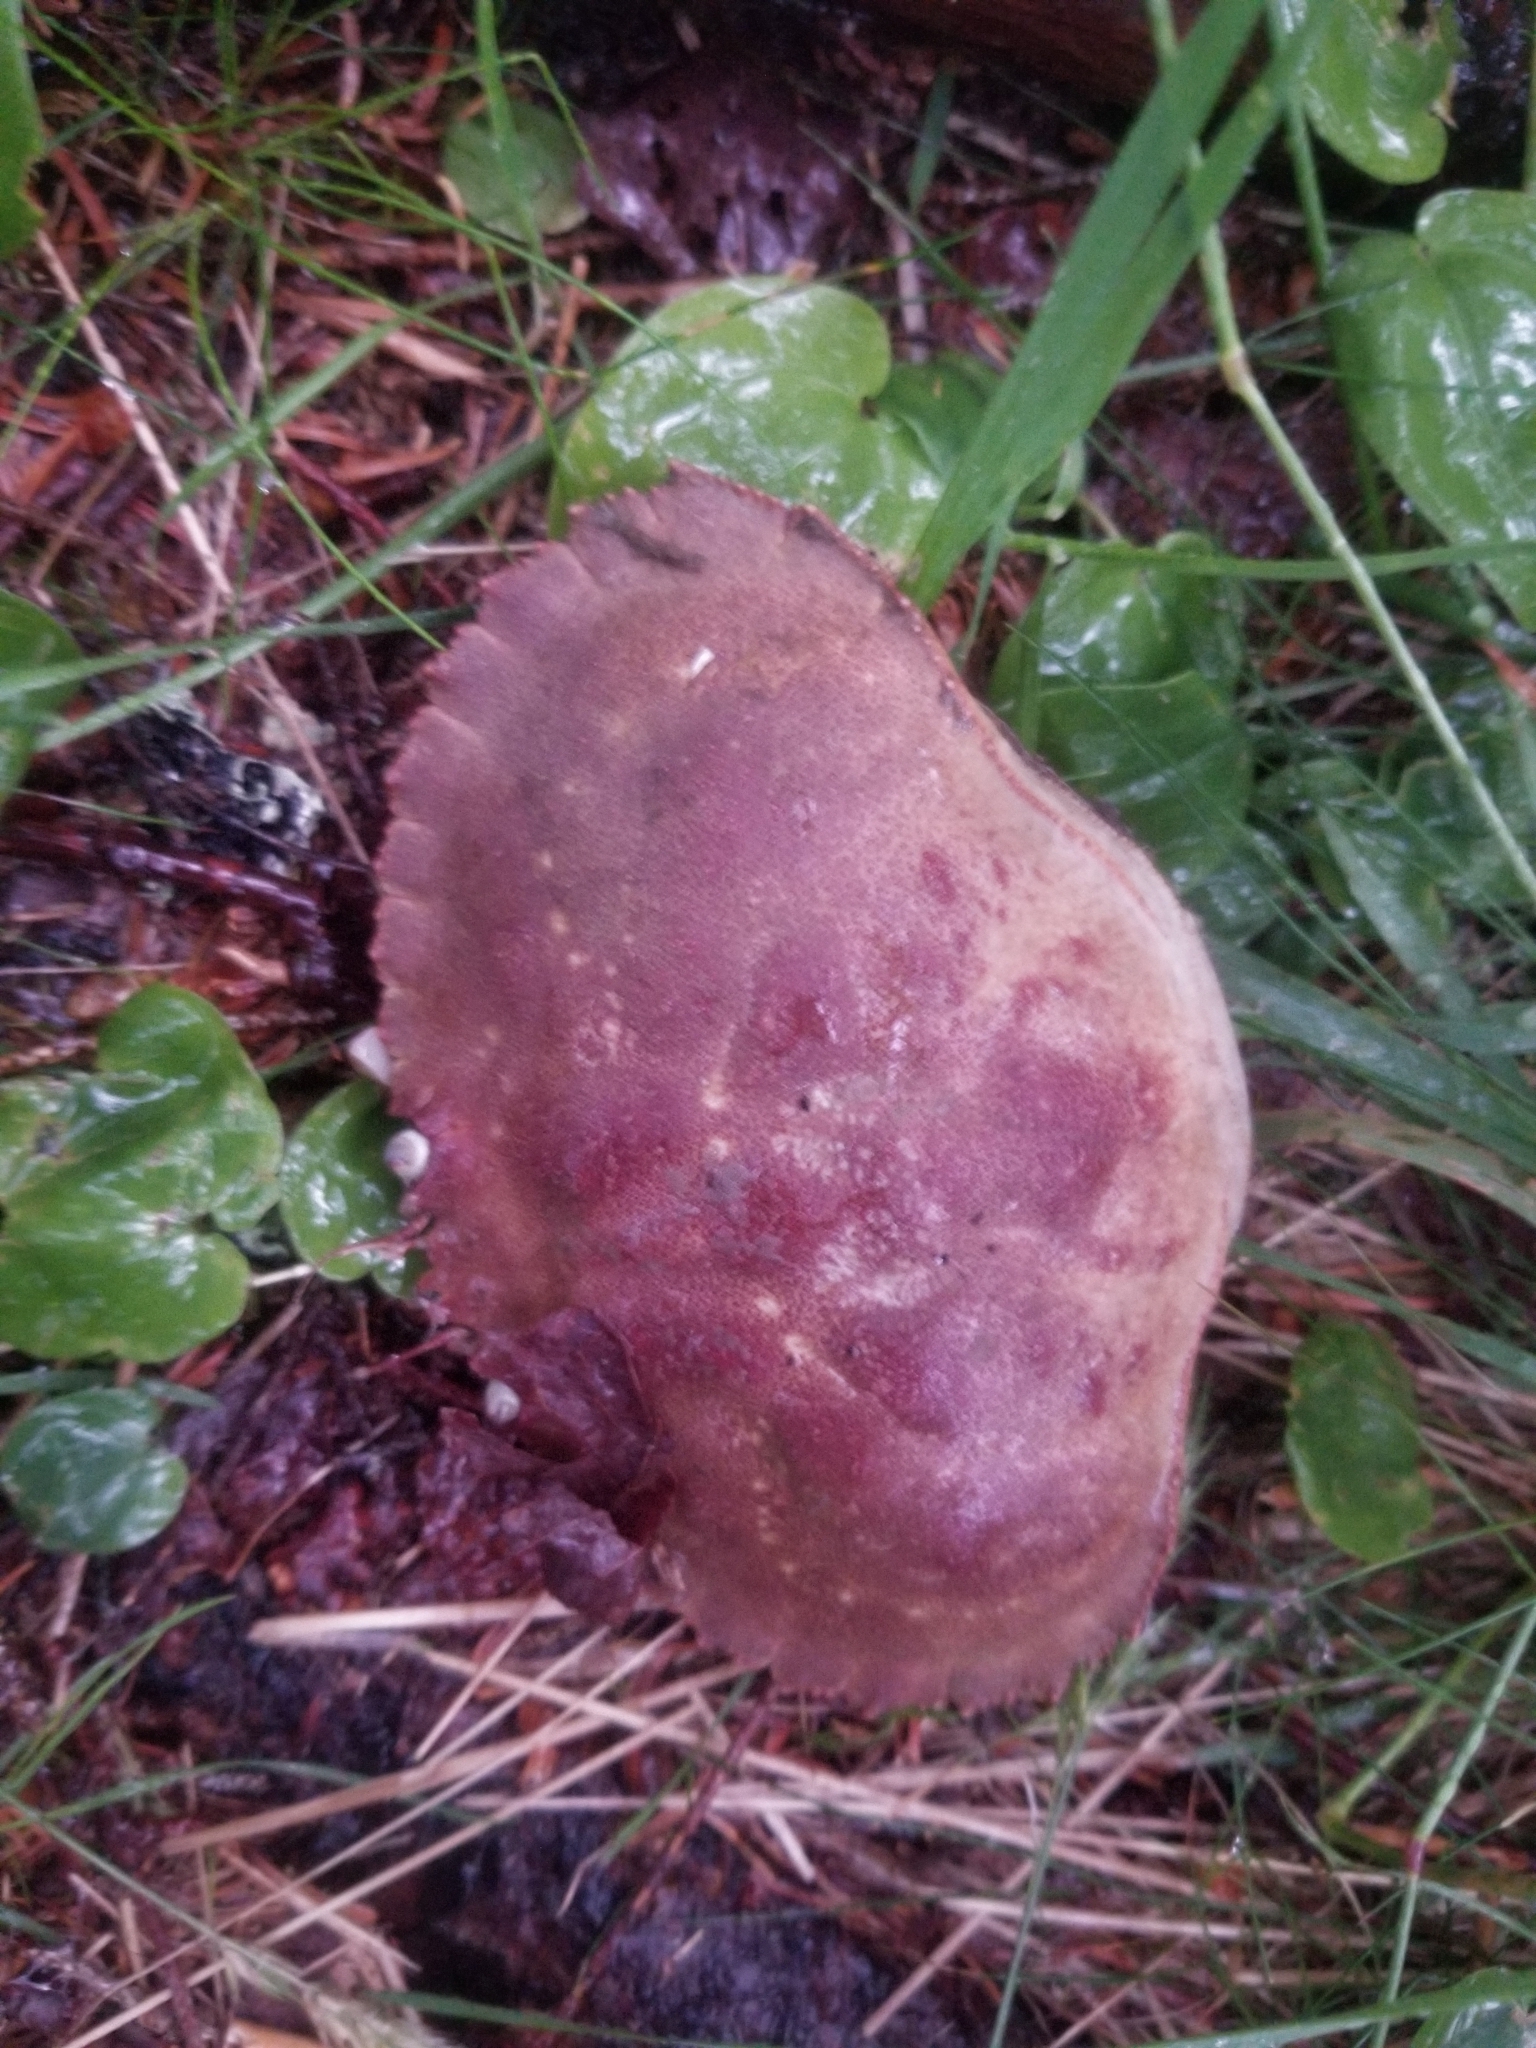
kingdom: Animalia
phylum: Arthropoda
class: Malacostraca
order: Decapoda
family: Cancridae
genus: Cancer
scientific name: Cancer borealis
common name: Jonah crab
